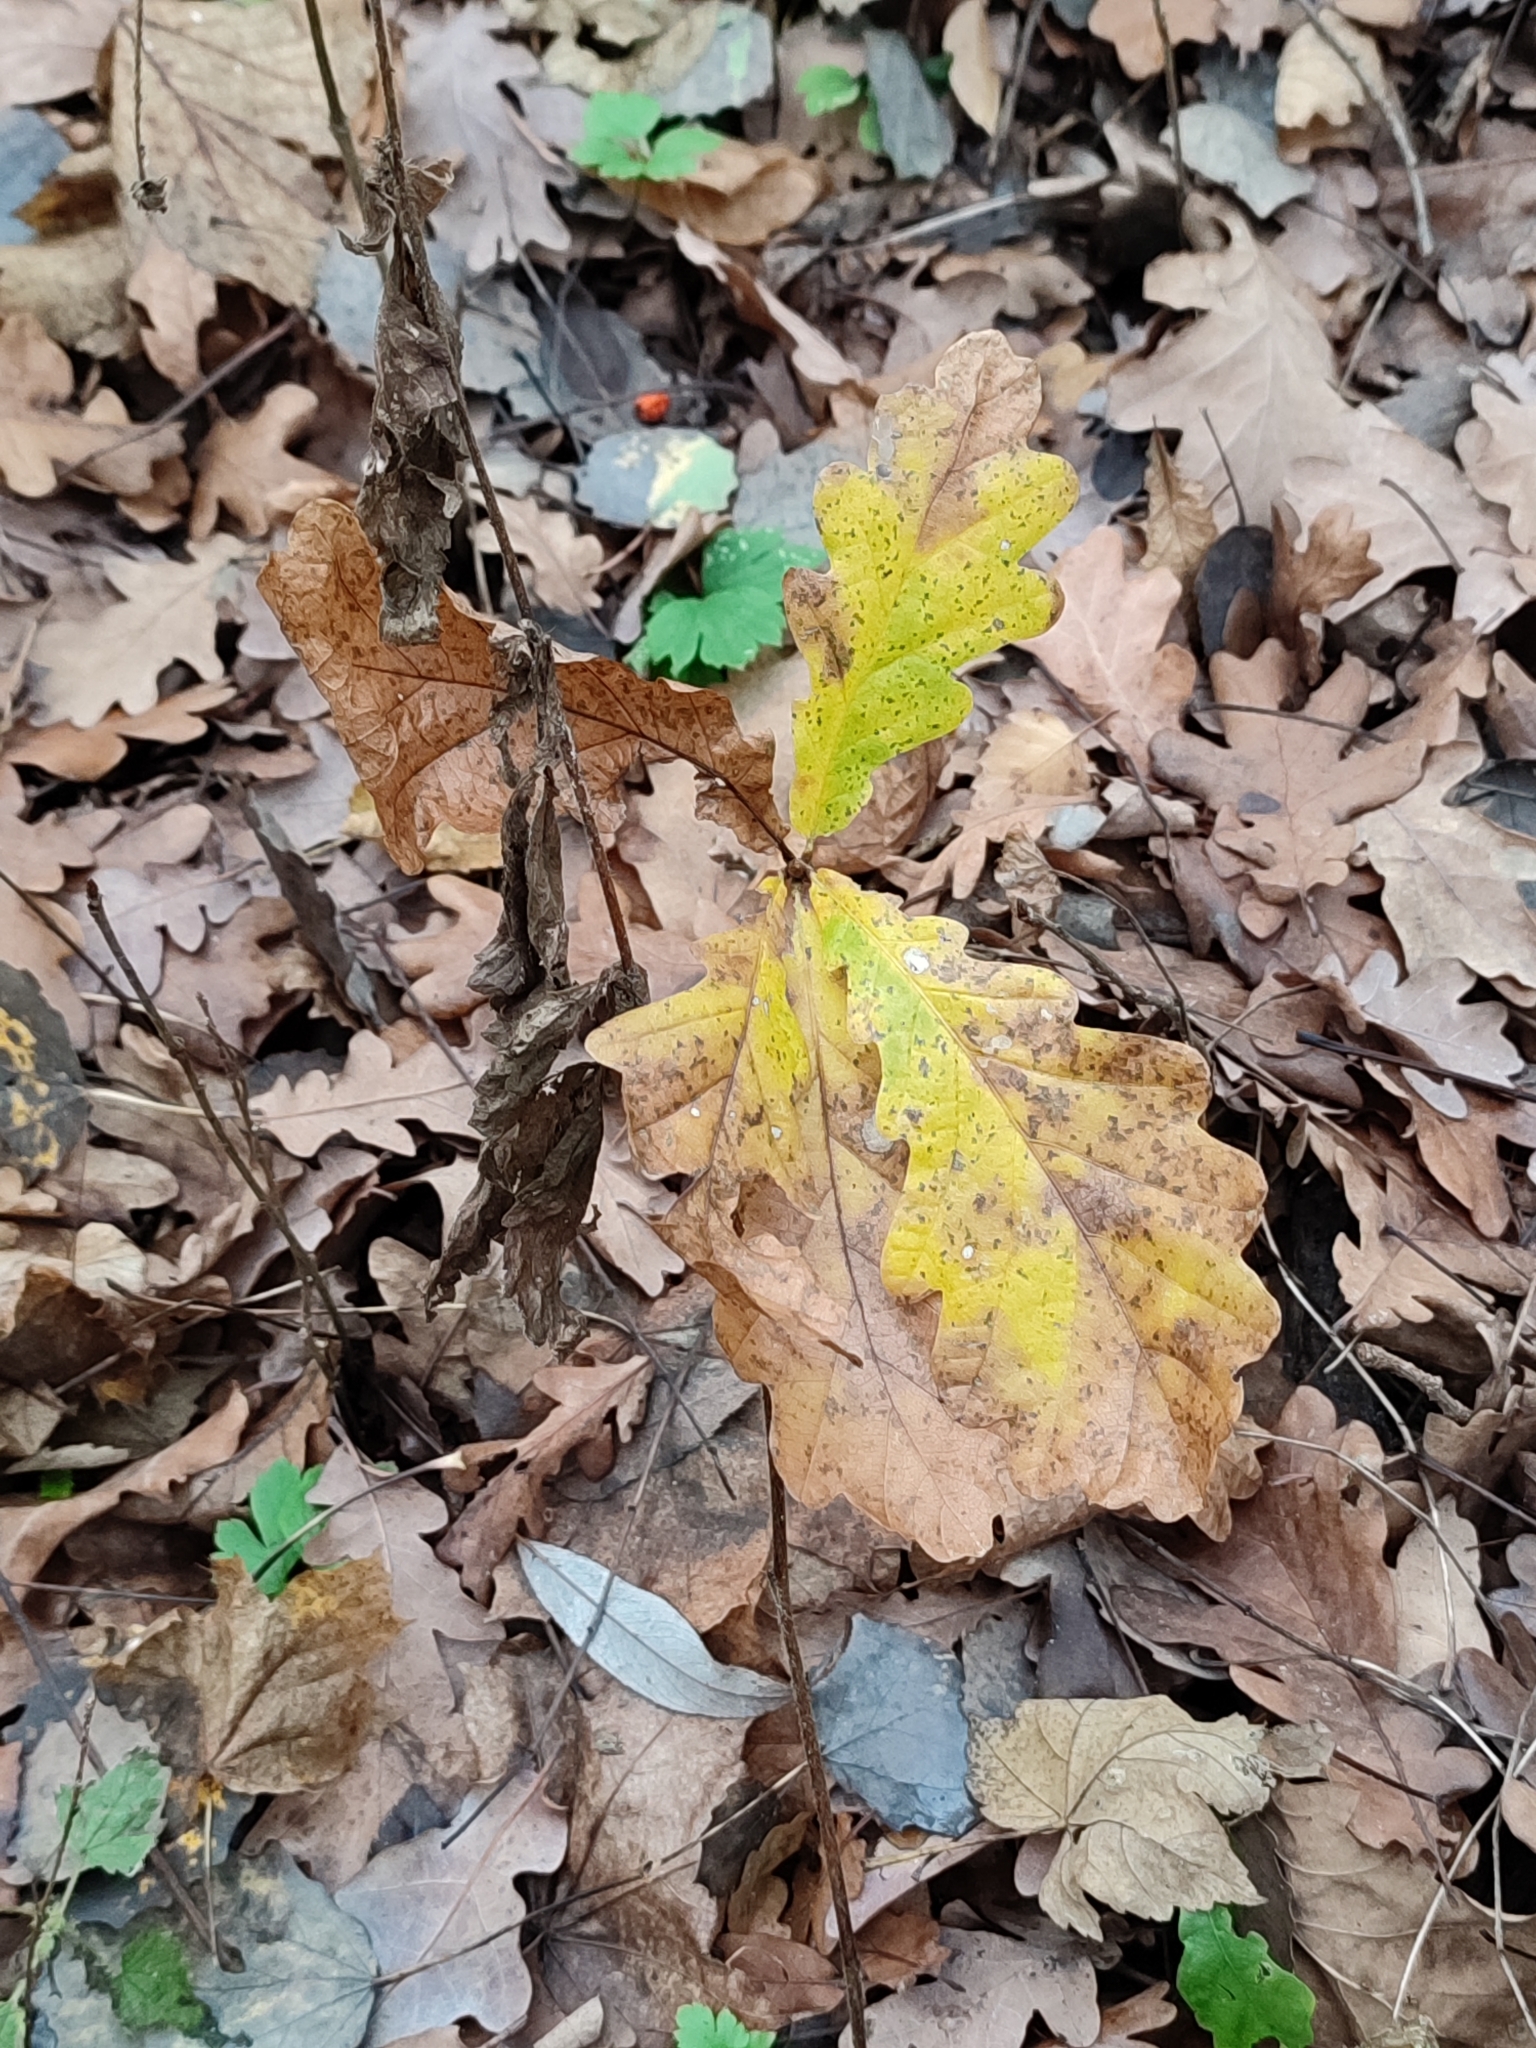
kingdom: Plantae
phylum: Tracheophyta
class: Magnoliopsida
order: Fagales
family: Fagaceae
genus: Quercus
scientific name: Quercus robur
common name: Pedunculate oak
